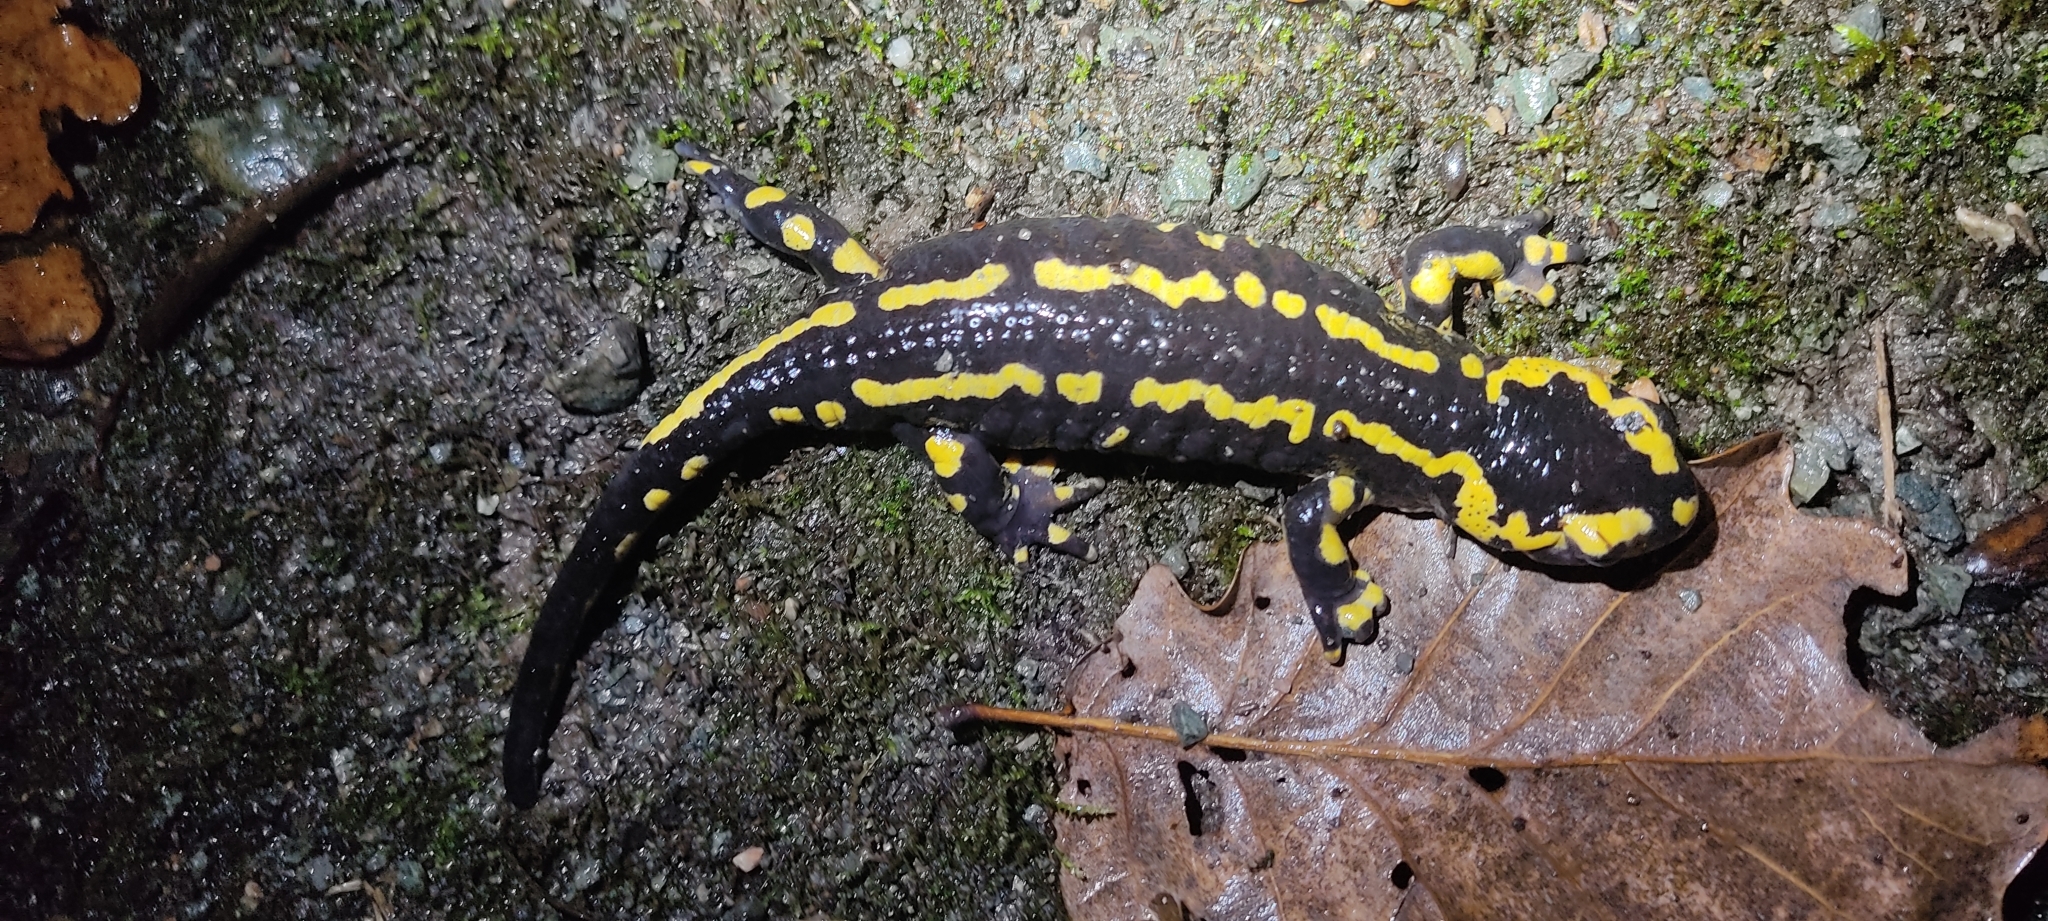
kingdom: Animalia
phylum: Chordata
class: Amphibia
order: Caudata
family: Salamandridae
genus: Salamandra
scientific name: Salamandra salamandra
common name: Fire salamander
